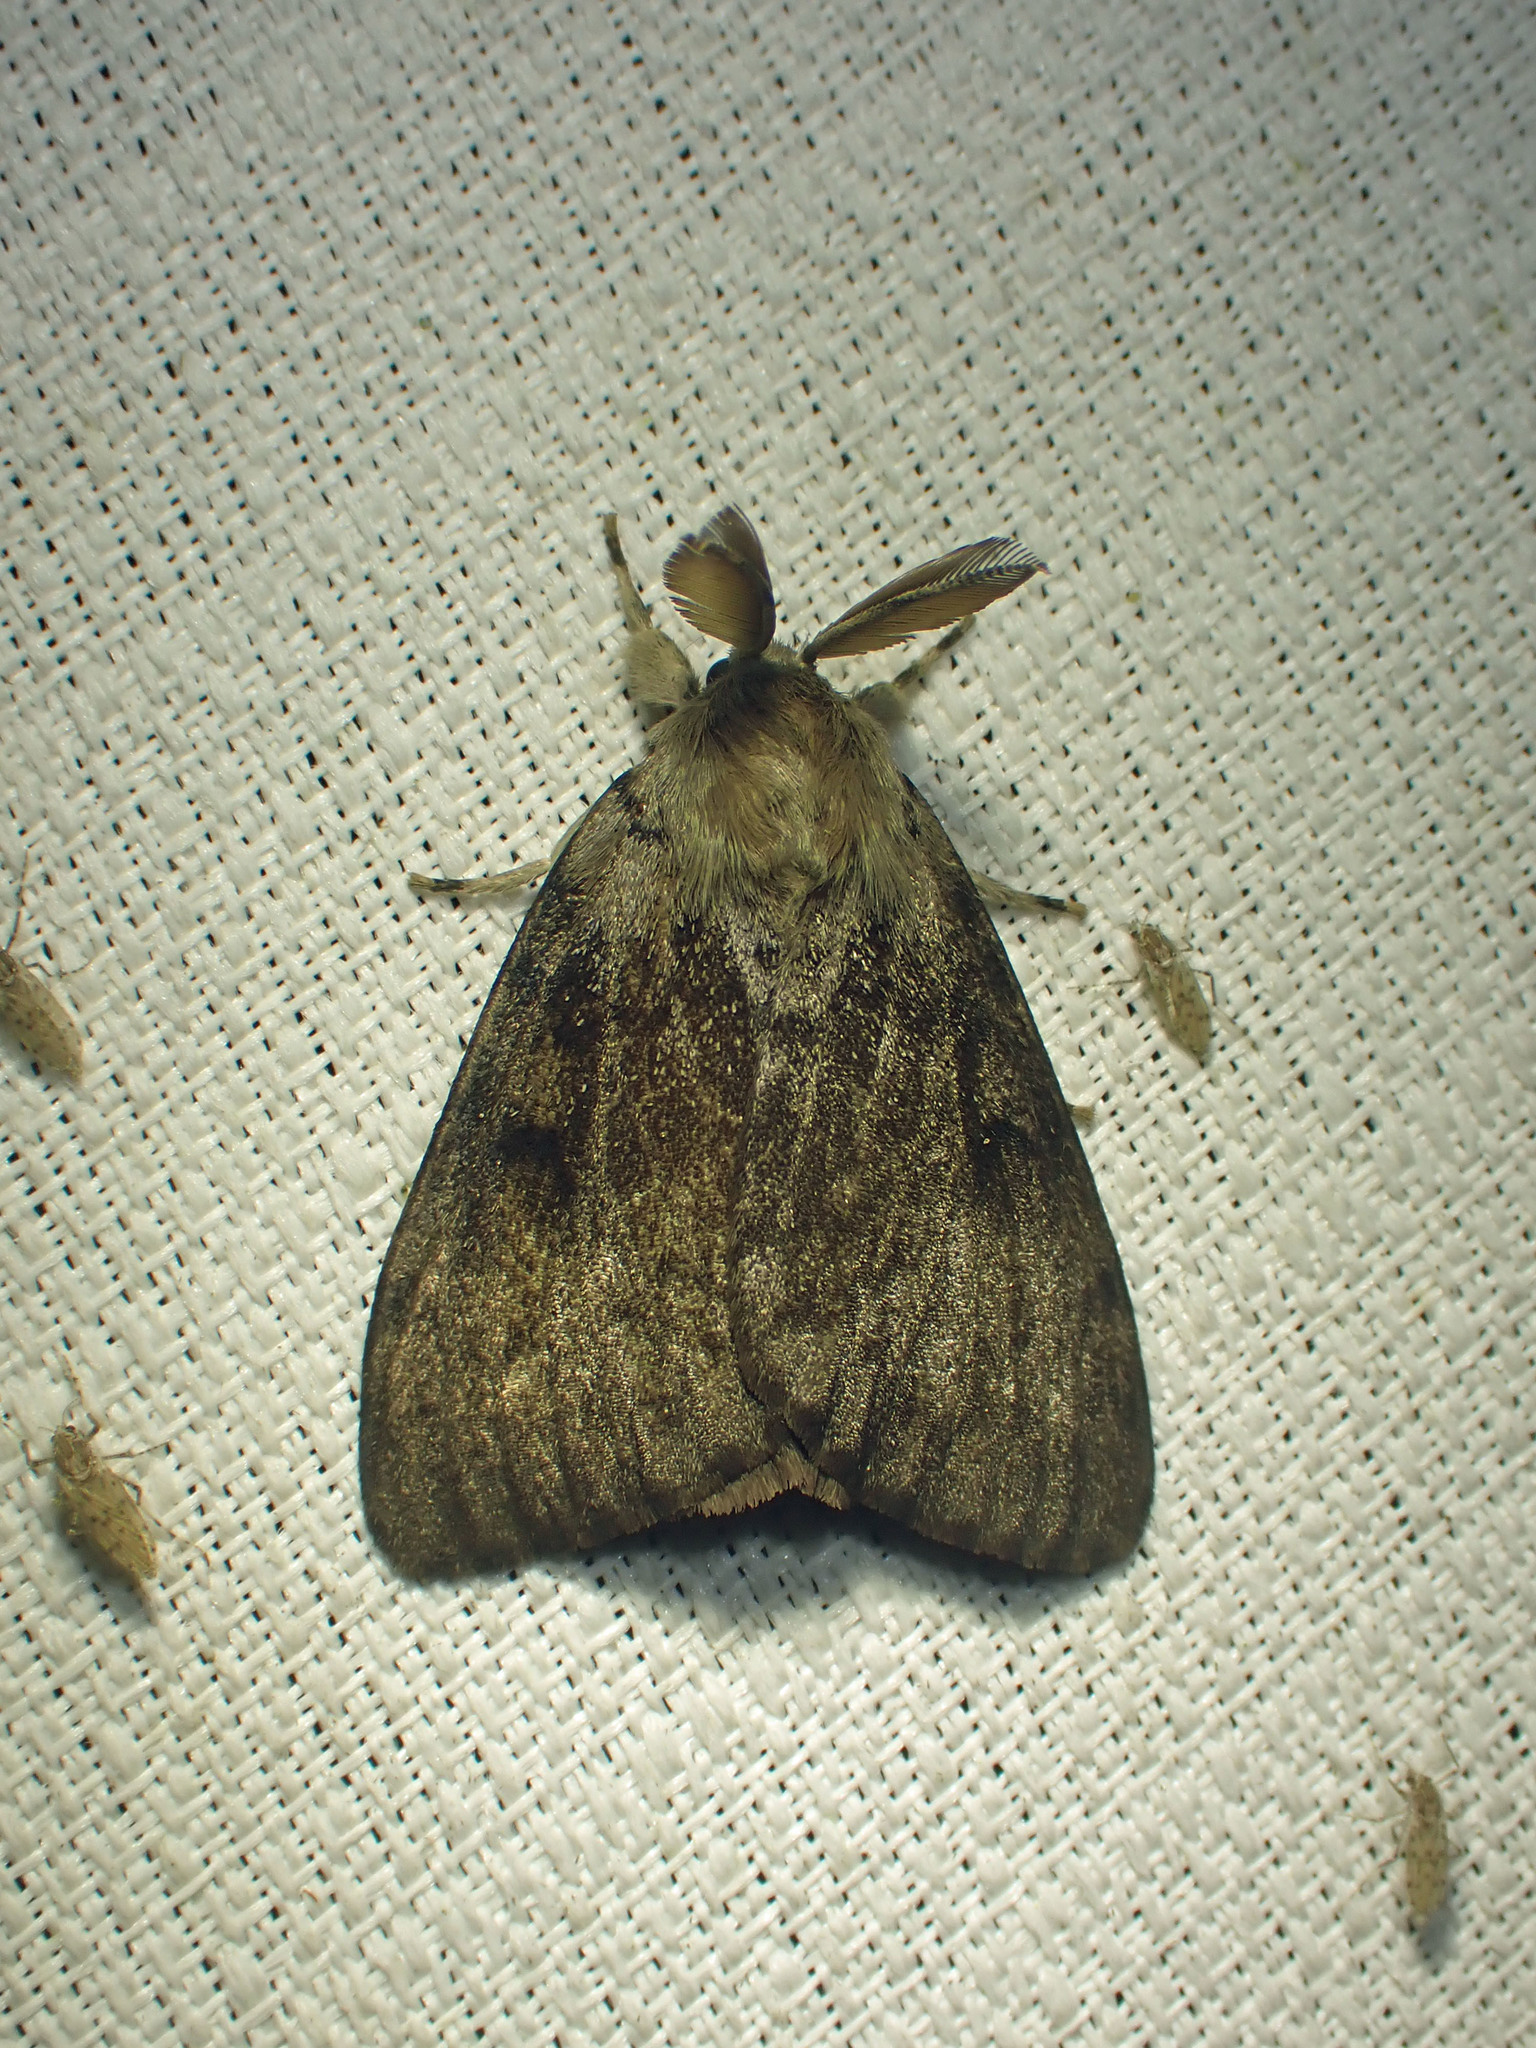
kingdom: Animalia
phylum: Arthropoda
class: Insecta
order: Lepidoptera
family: Erebidae
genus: Lymantria
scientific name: Lymantria dispar
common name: Gypsy moth
